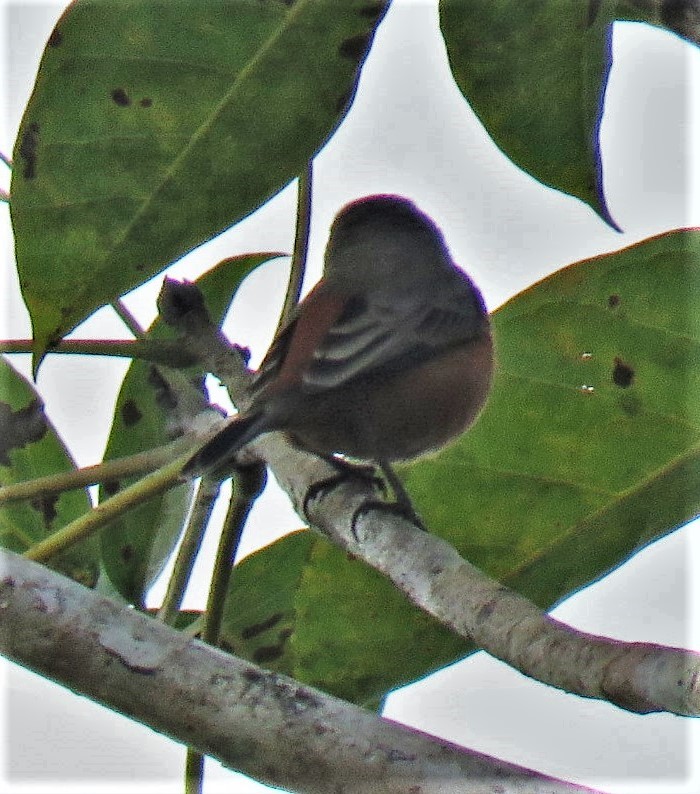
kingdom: Animalia
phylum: Chordata
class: Aves
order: Passeriformes
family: Thraupidae
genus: Sporophila
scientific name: Sporophila minuta
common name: Ruddy-breasted seedeater
